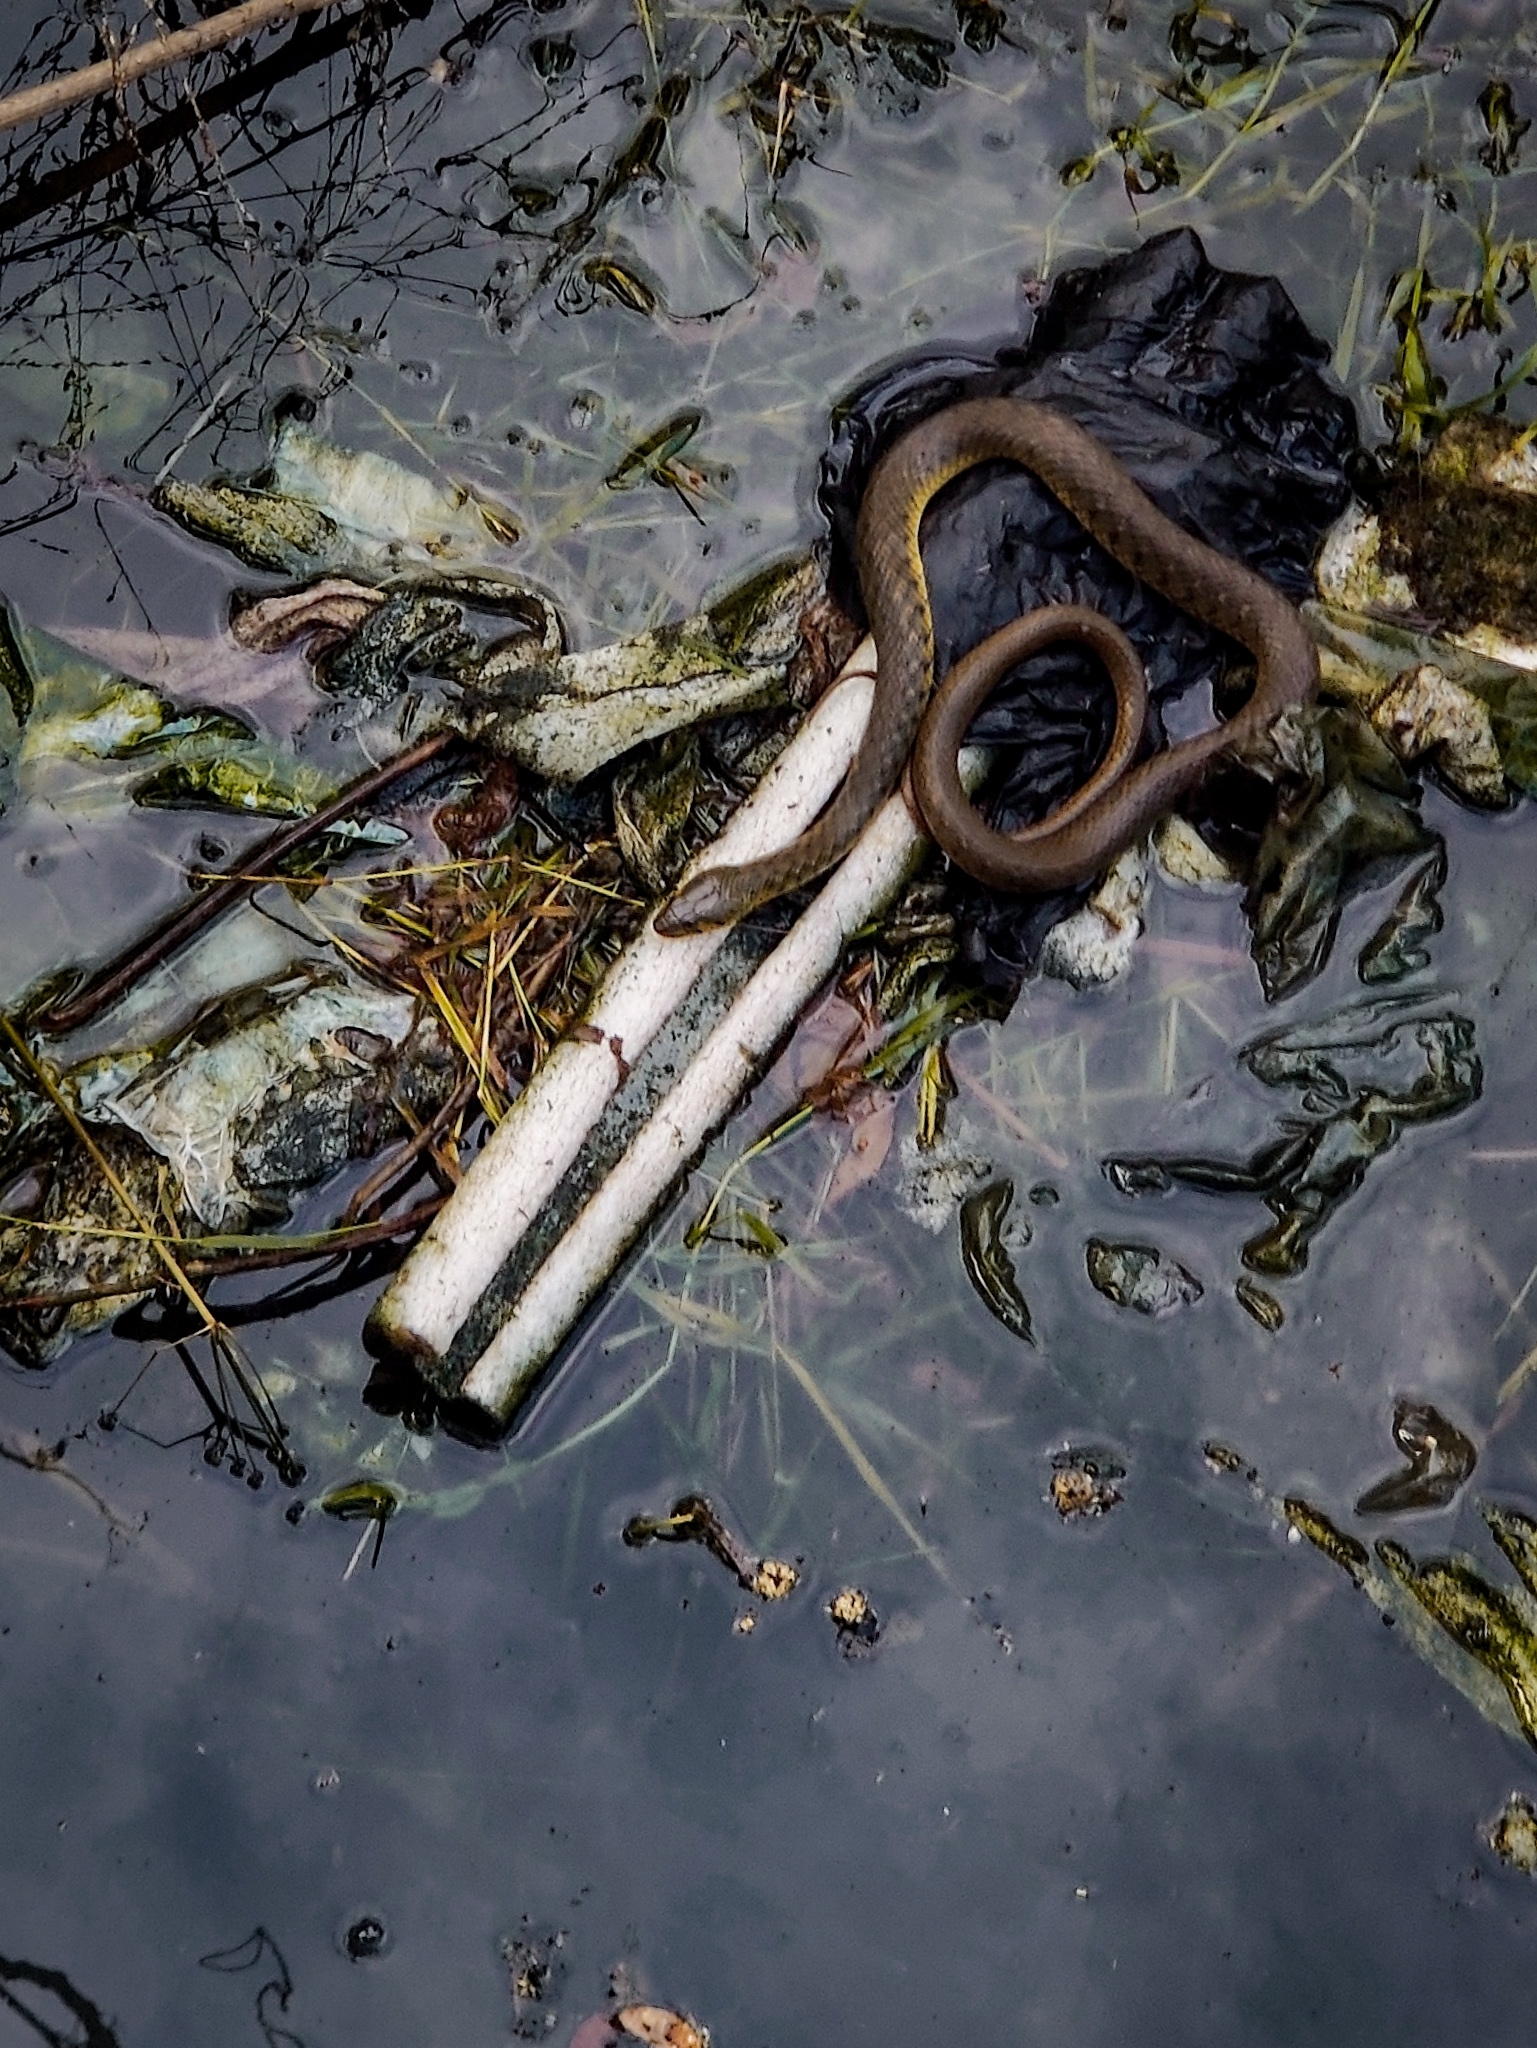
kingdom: Animalia
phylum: Chordata
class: Squamata
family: Colubridae
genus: Fowlea
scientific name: Fowlea piscator
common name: Asiatic water snake
